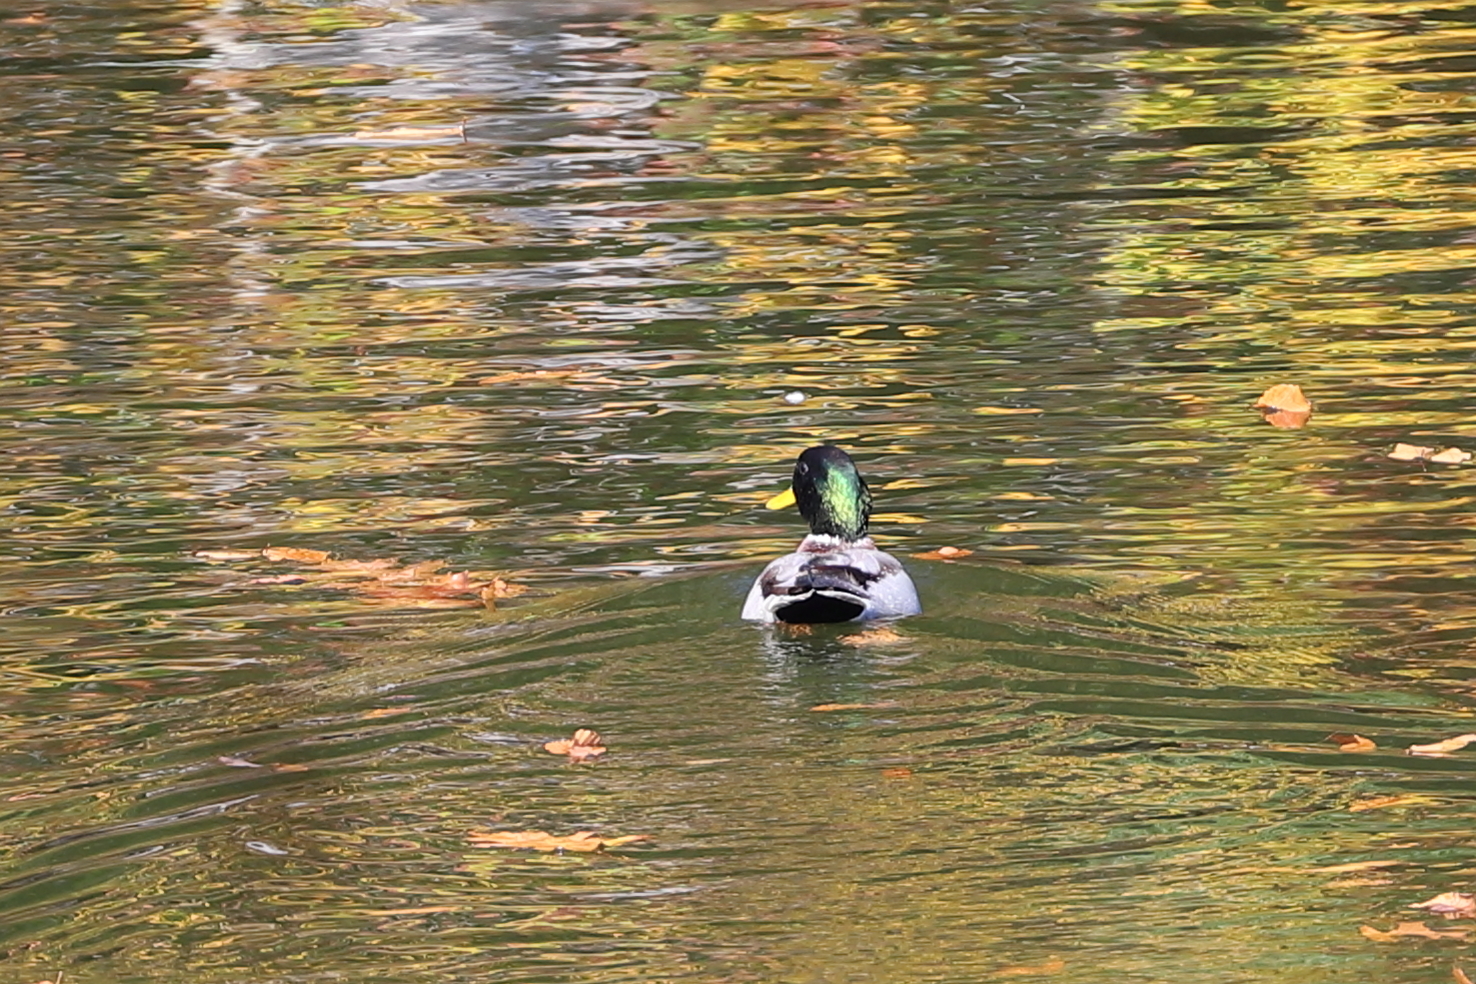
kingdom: Animalia
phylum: Chordata
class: Aves
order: Anseriformes
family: Anatidae
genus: Anas
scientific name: Anas platyrhynchos
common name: Mallard
